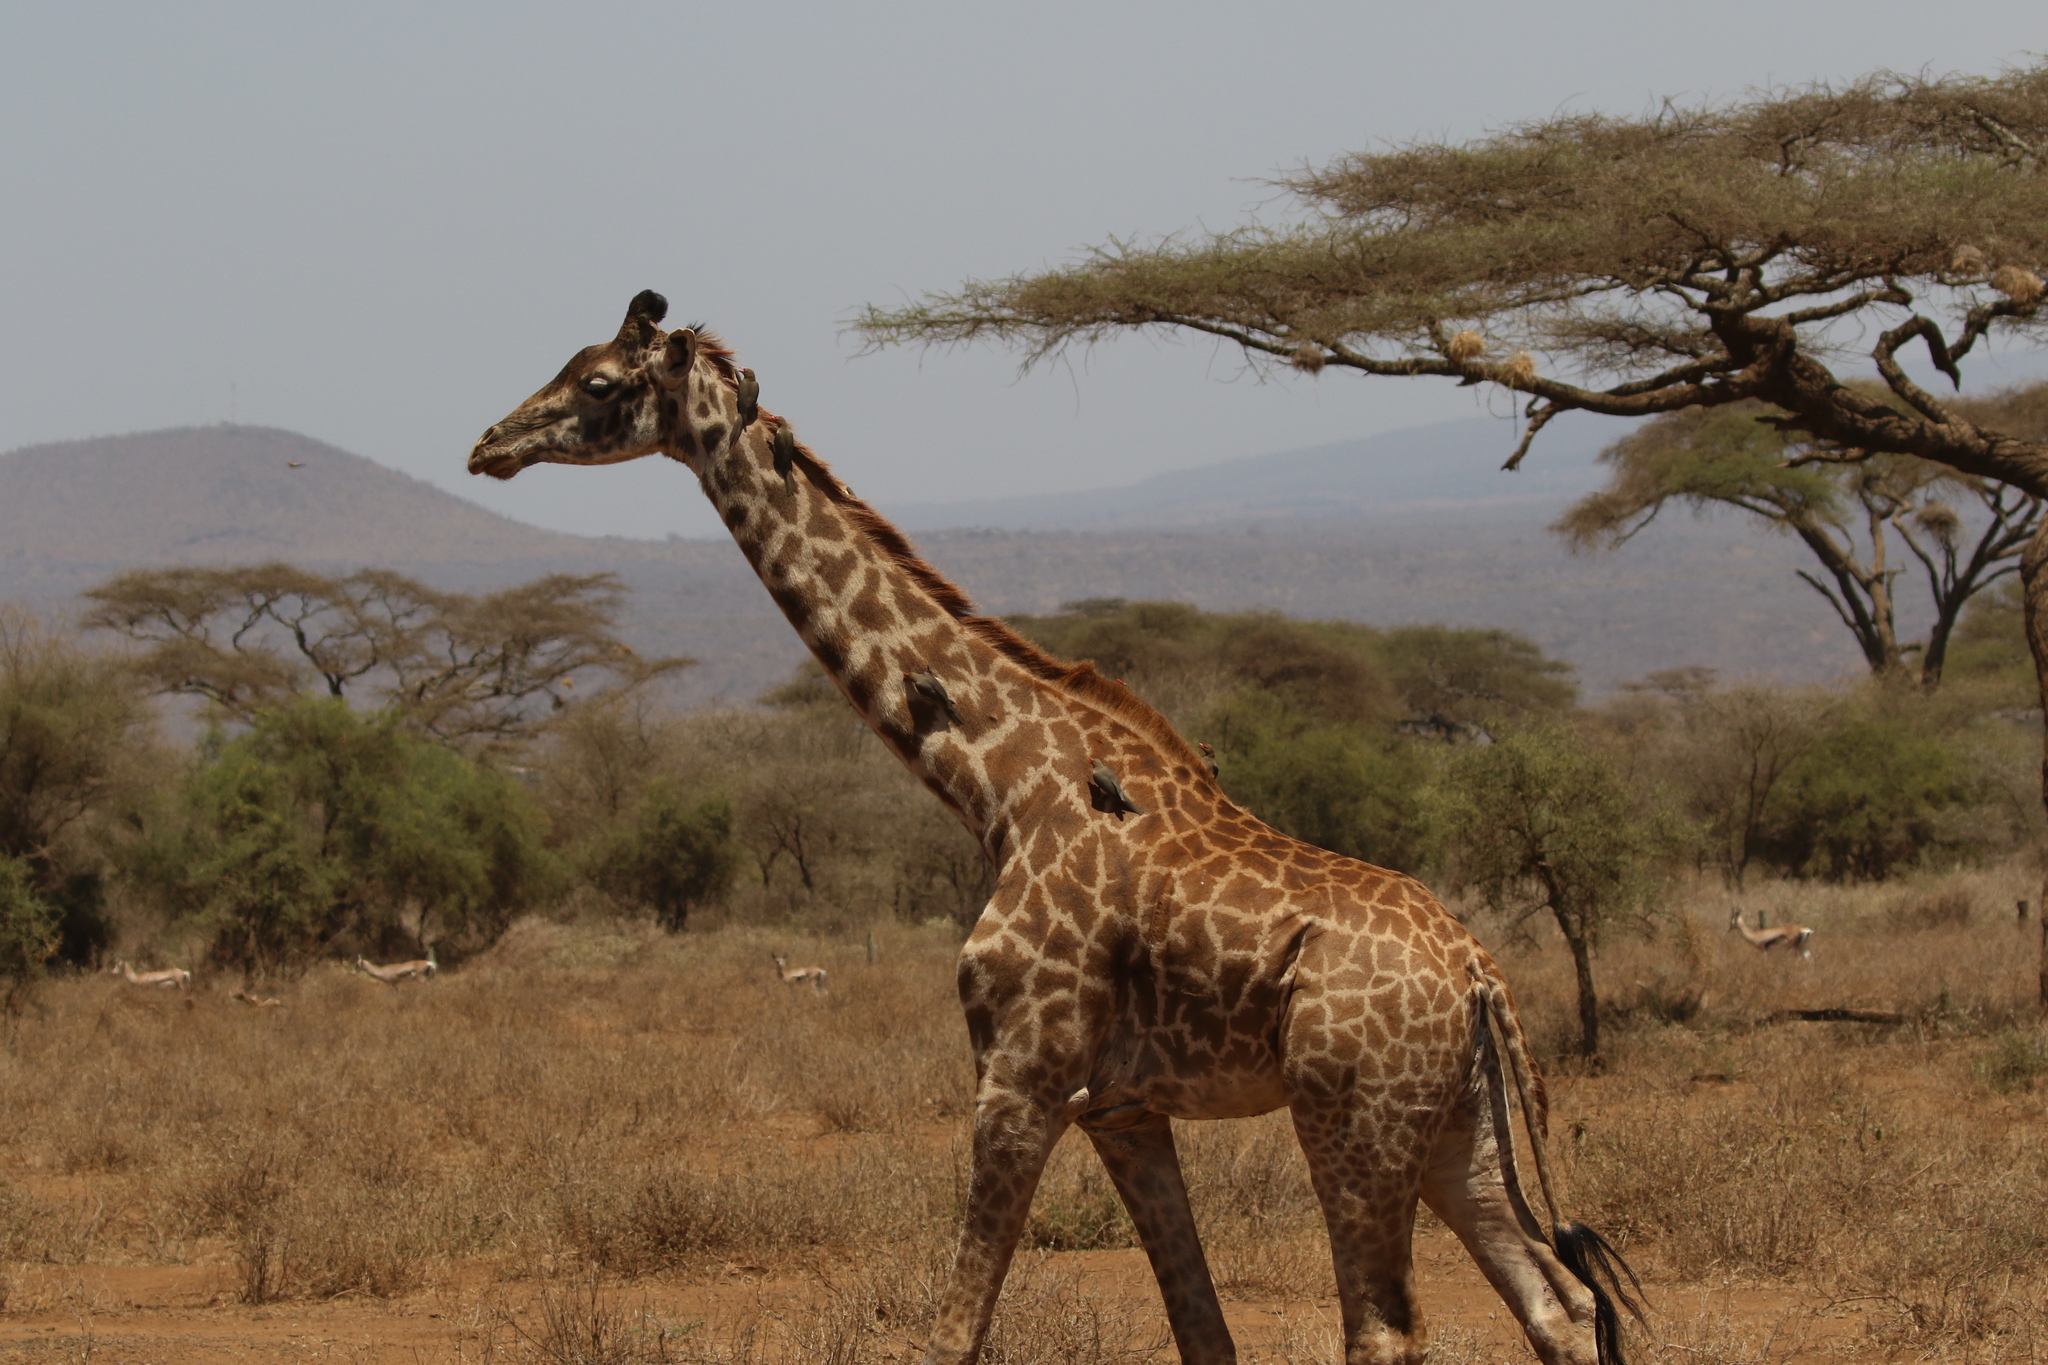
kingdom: Animalia
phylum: Chordata
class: Mammalia
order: Artiodactyla
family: Giraffidae
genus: Giraffa
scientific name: Giraffa tippelskirchi
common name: Masai giraffe
